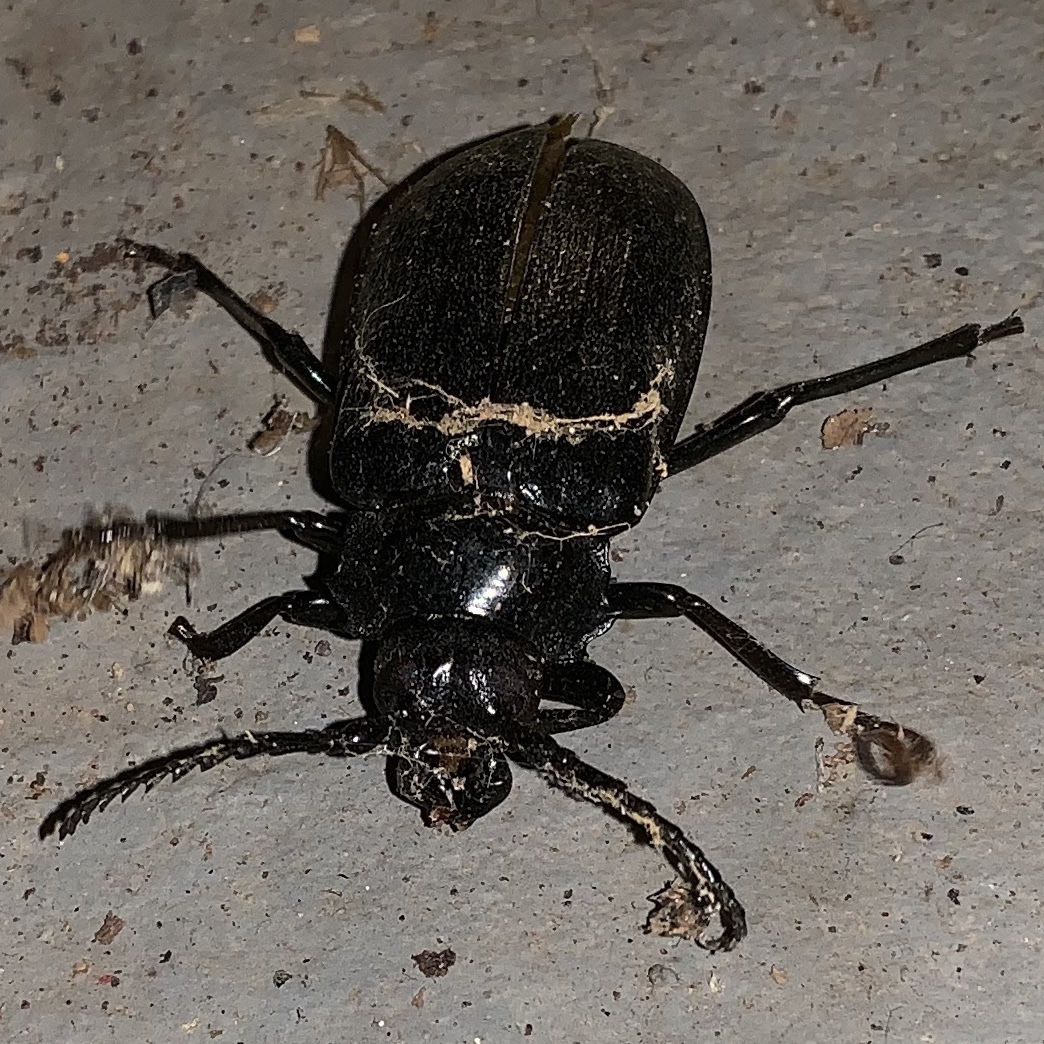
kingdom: Animalia
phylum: Arthropoda
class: Insecta
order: Coleoptera
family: Cerambycidae
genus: Prionus
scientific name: Prionus laticollis
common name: Broad necked prionus
